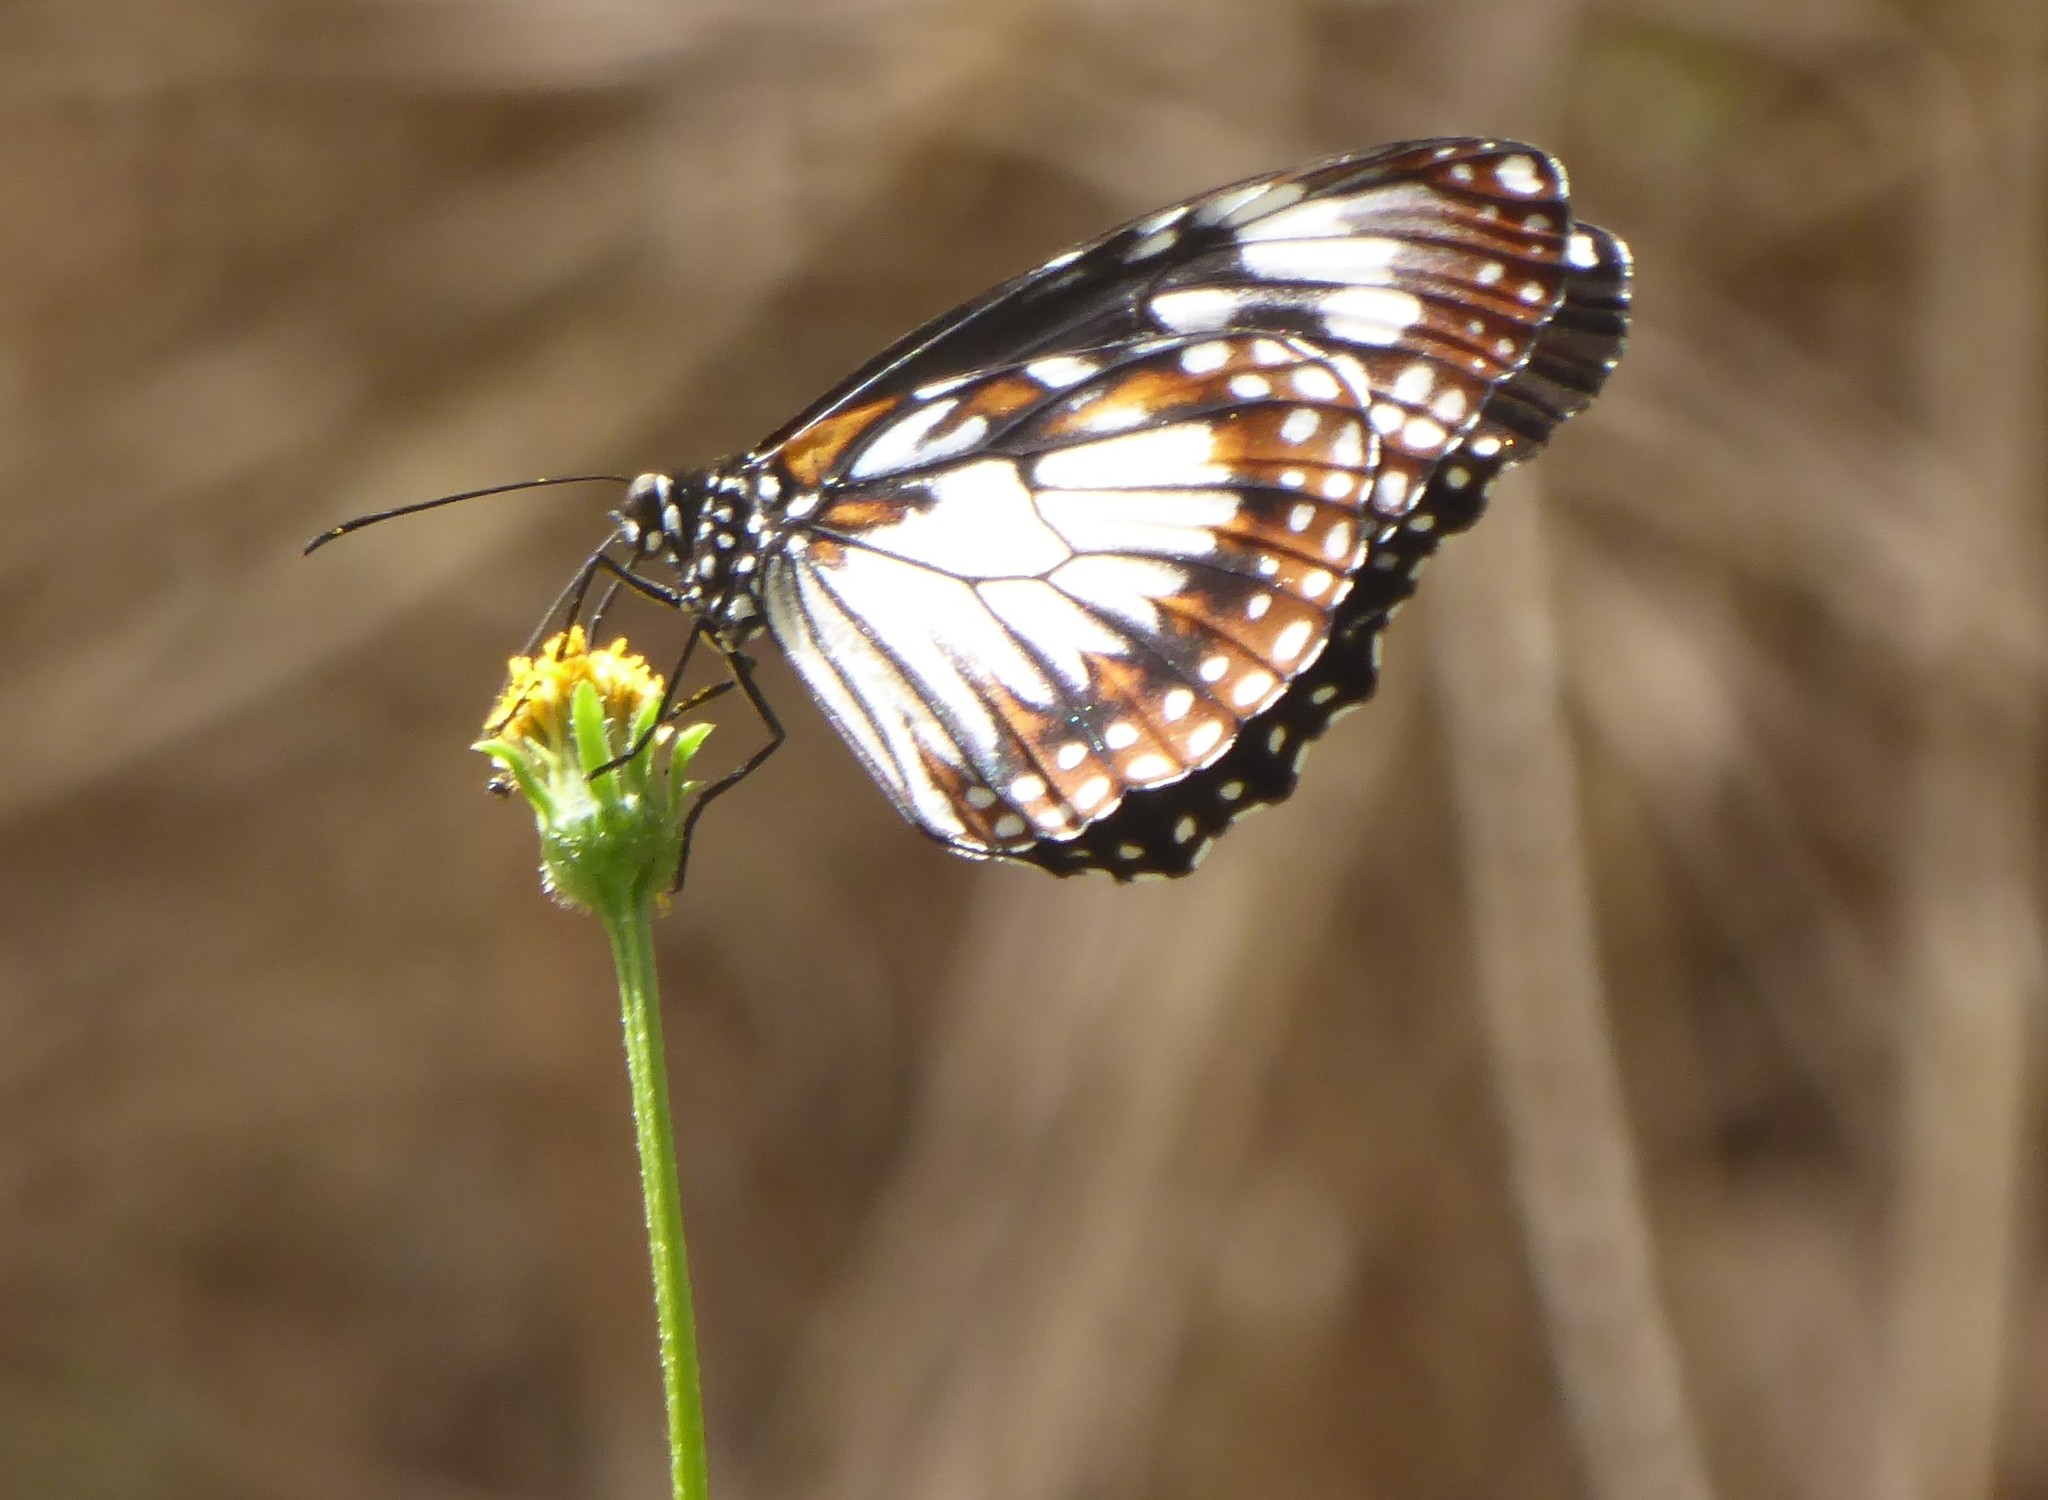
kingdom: Animalia
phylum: Arthropoda
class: Insecta
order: Lepidoptera
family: Nymphalidae
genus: Danaus
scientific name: Danaus affinis
